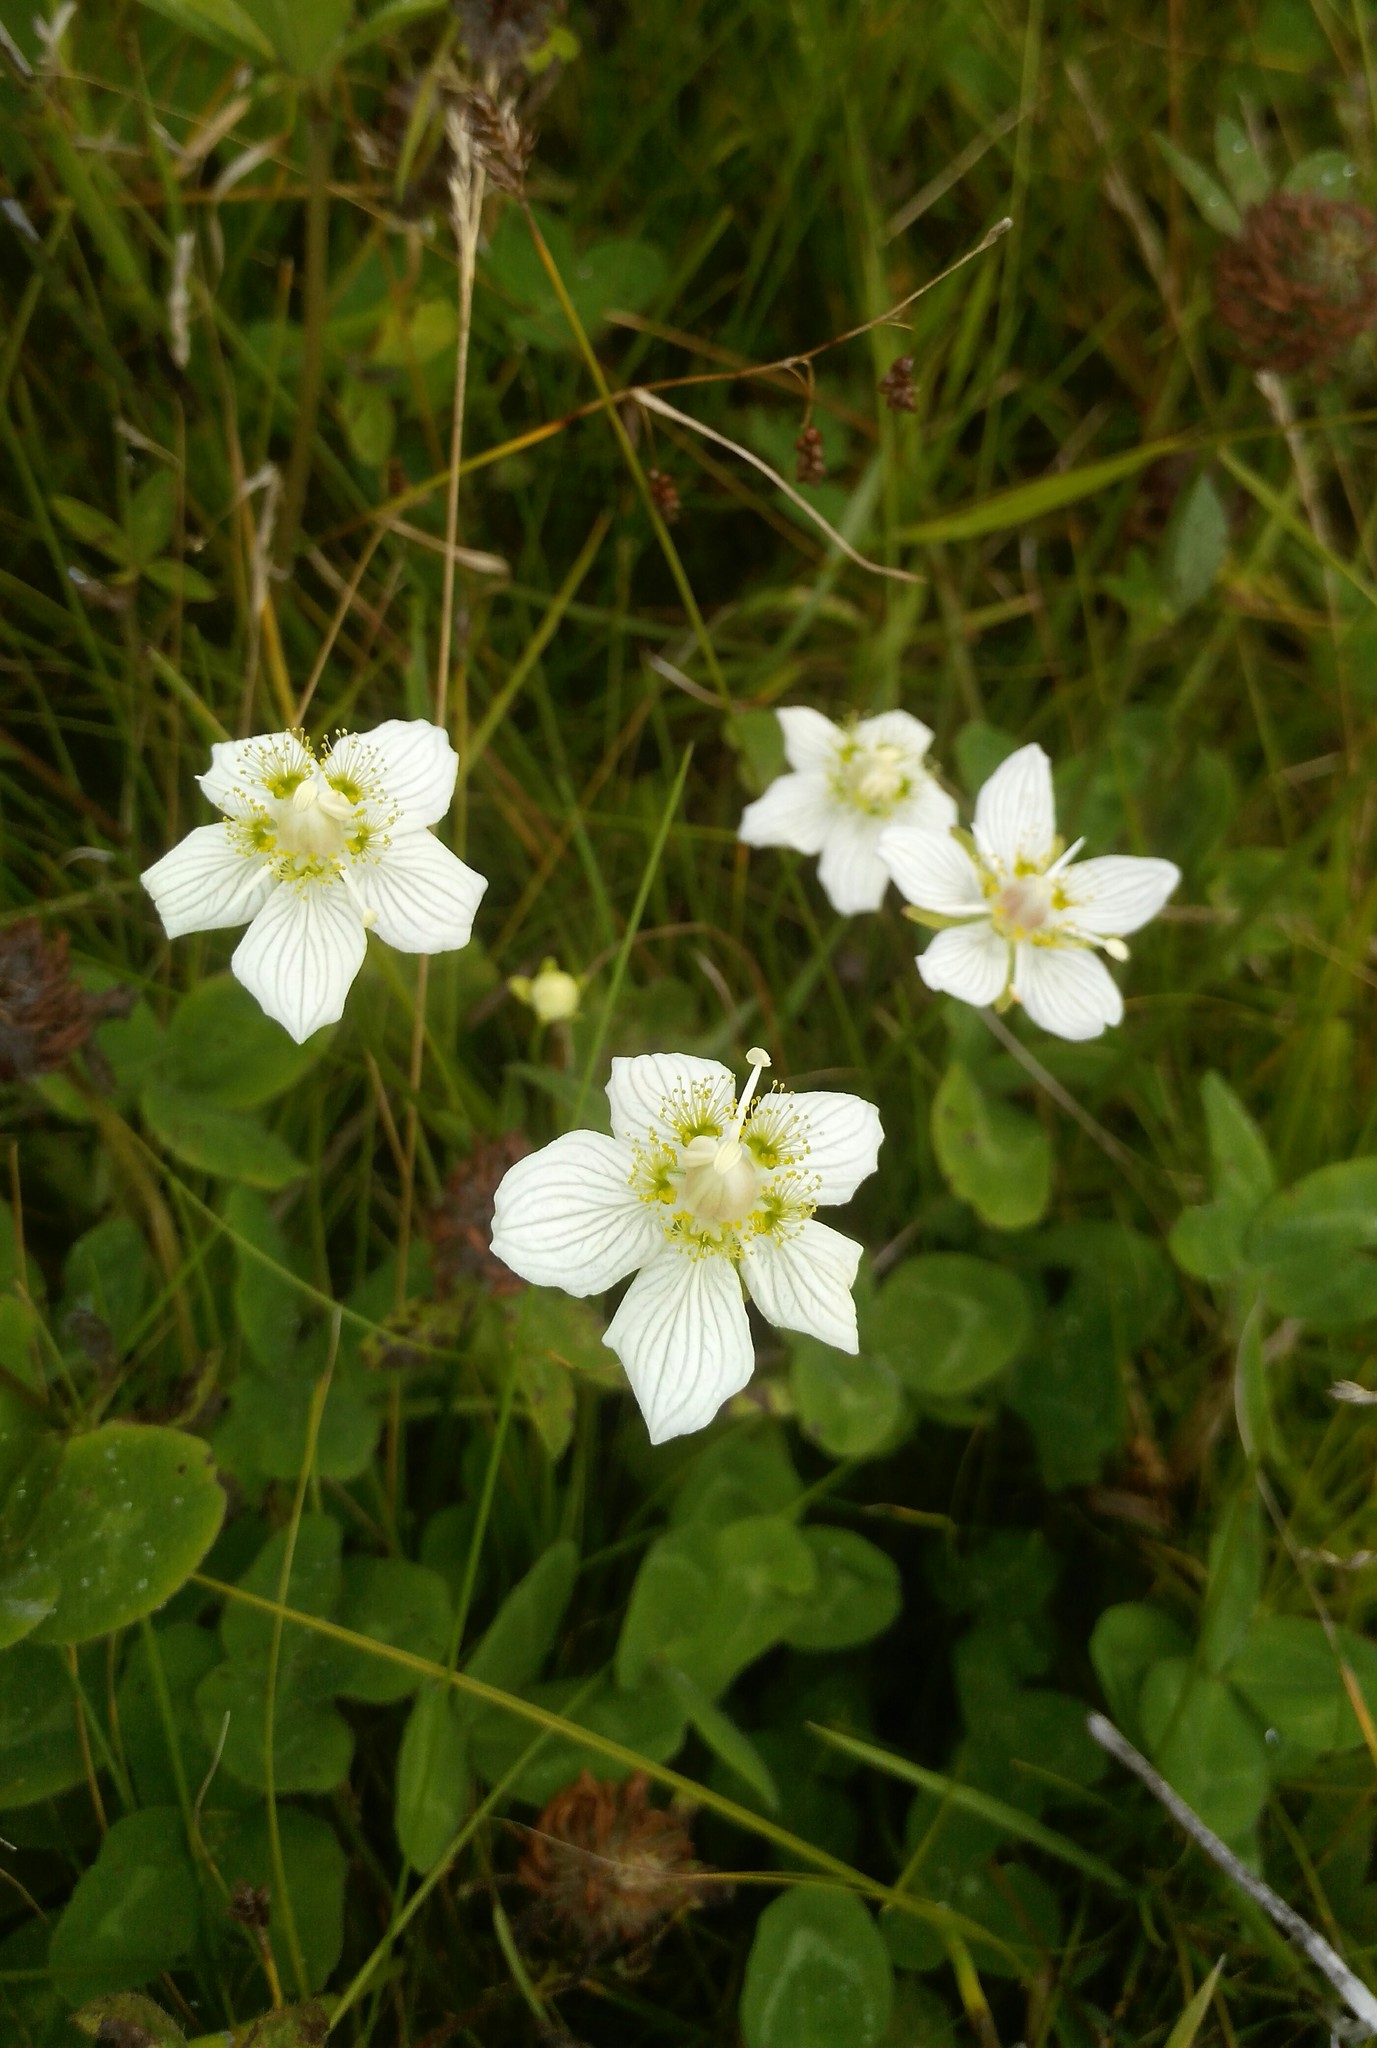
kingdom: Plantae
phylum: Tracheophyta
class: Magnoliopsida
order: Celastrales
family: Parnassiaceae
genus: Parnassia
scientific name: Parnassia palustris
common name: Grass-of-parnassus
